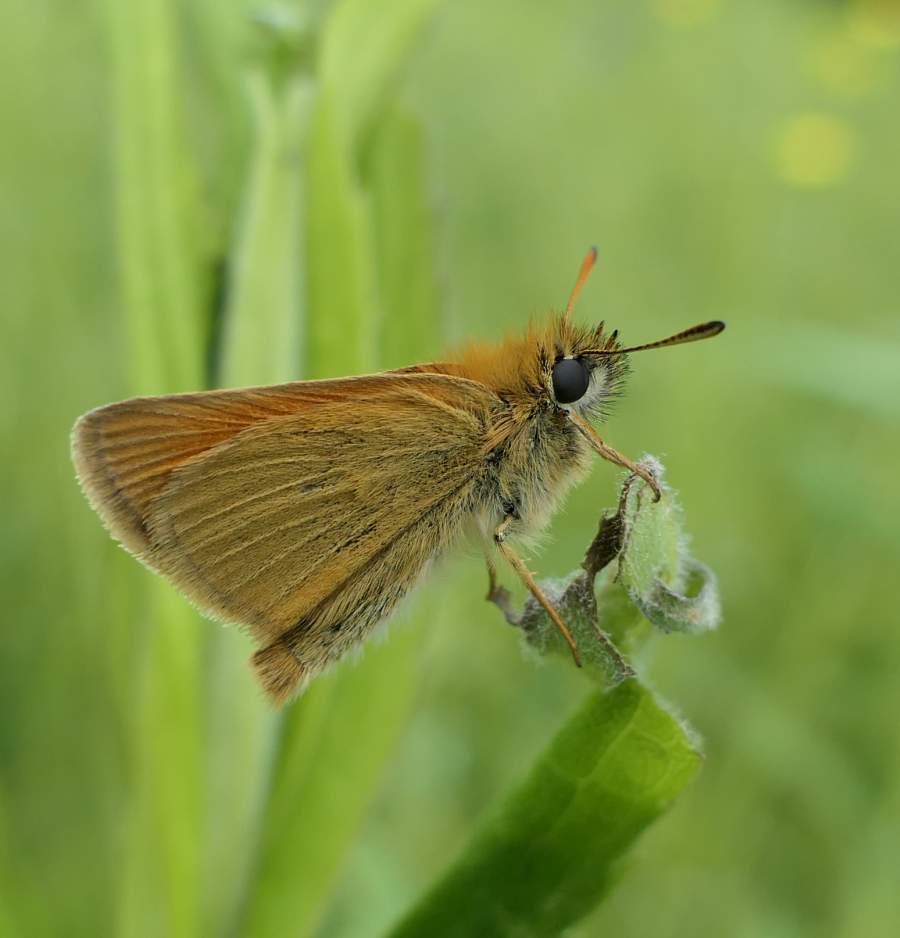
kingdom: Animalia
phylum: Arthropoda
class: Insecta
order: Lepidoptera
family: Hesperiidae
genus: Thymelicus
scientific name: Thymelicus lineola
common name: Essex skipper
